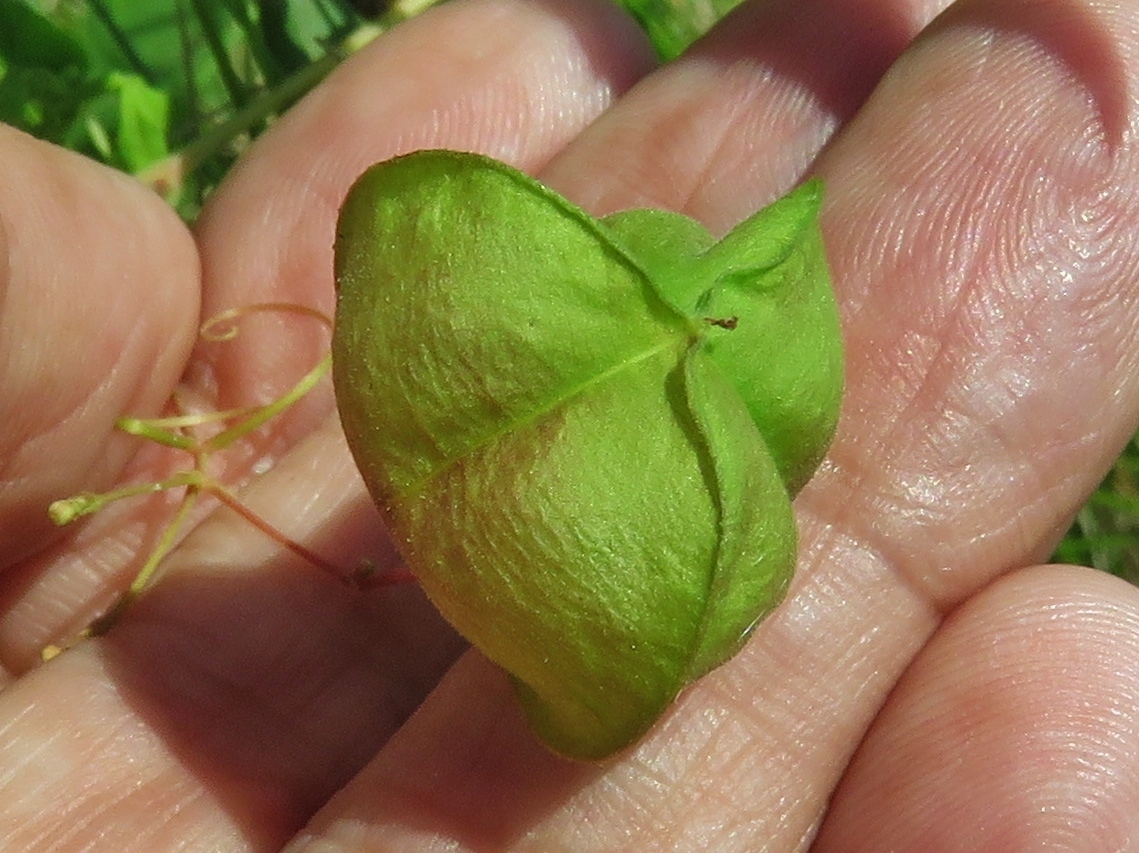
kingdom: Plantae
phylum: Tracheophyta
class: Magnoliopsida
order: Sapindales
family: Sapindaceae
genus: Cardiospermum
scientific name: Cardiospermum halicacabum
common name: Balloon vine
